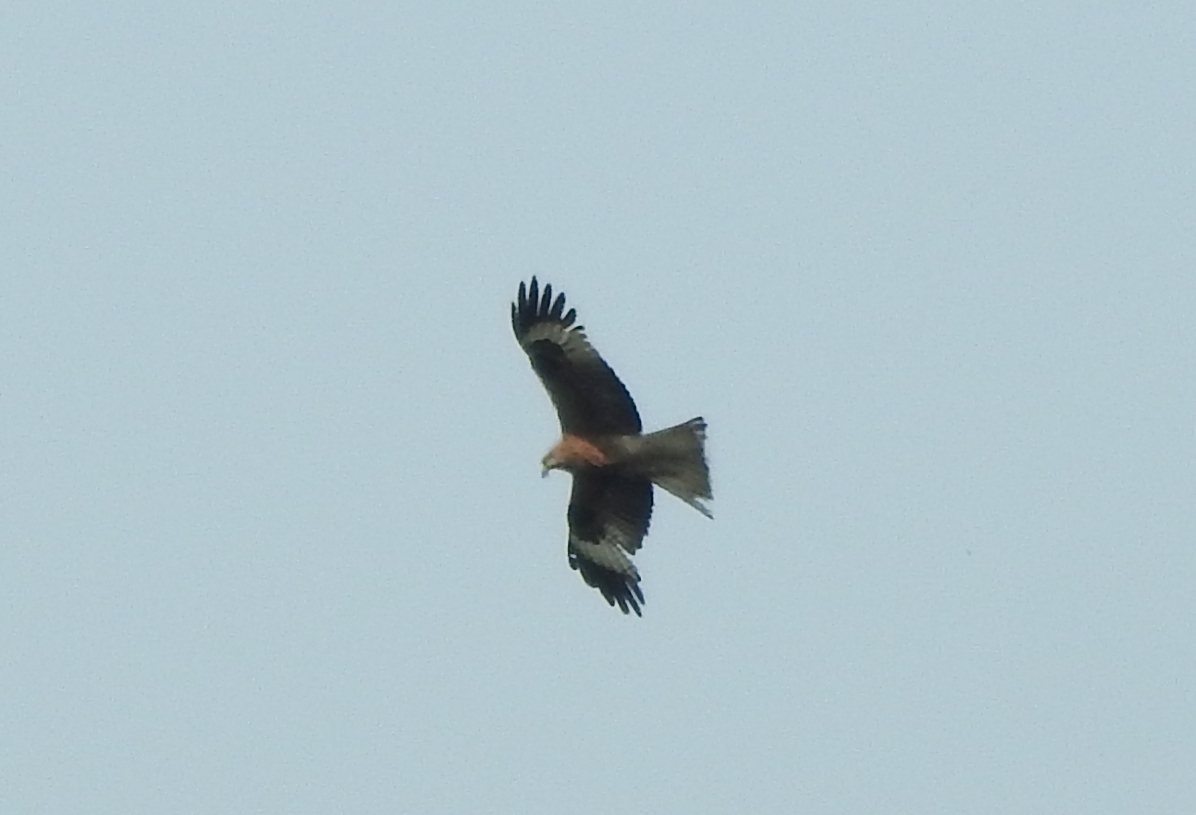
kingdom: Animalia
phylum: Chordata
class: Aves
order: Accipitriformes
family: Accipitridae
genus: Milvus
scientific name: Milvus migrans
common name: Black kite
